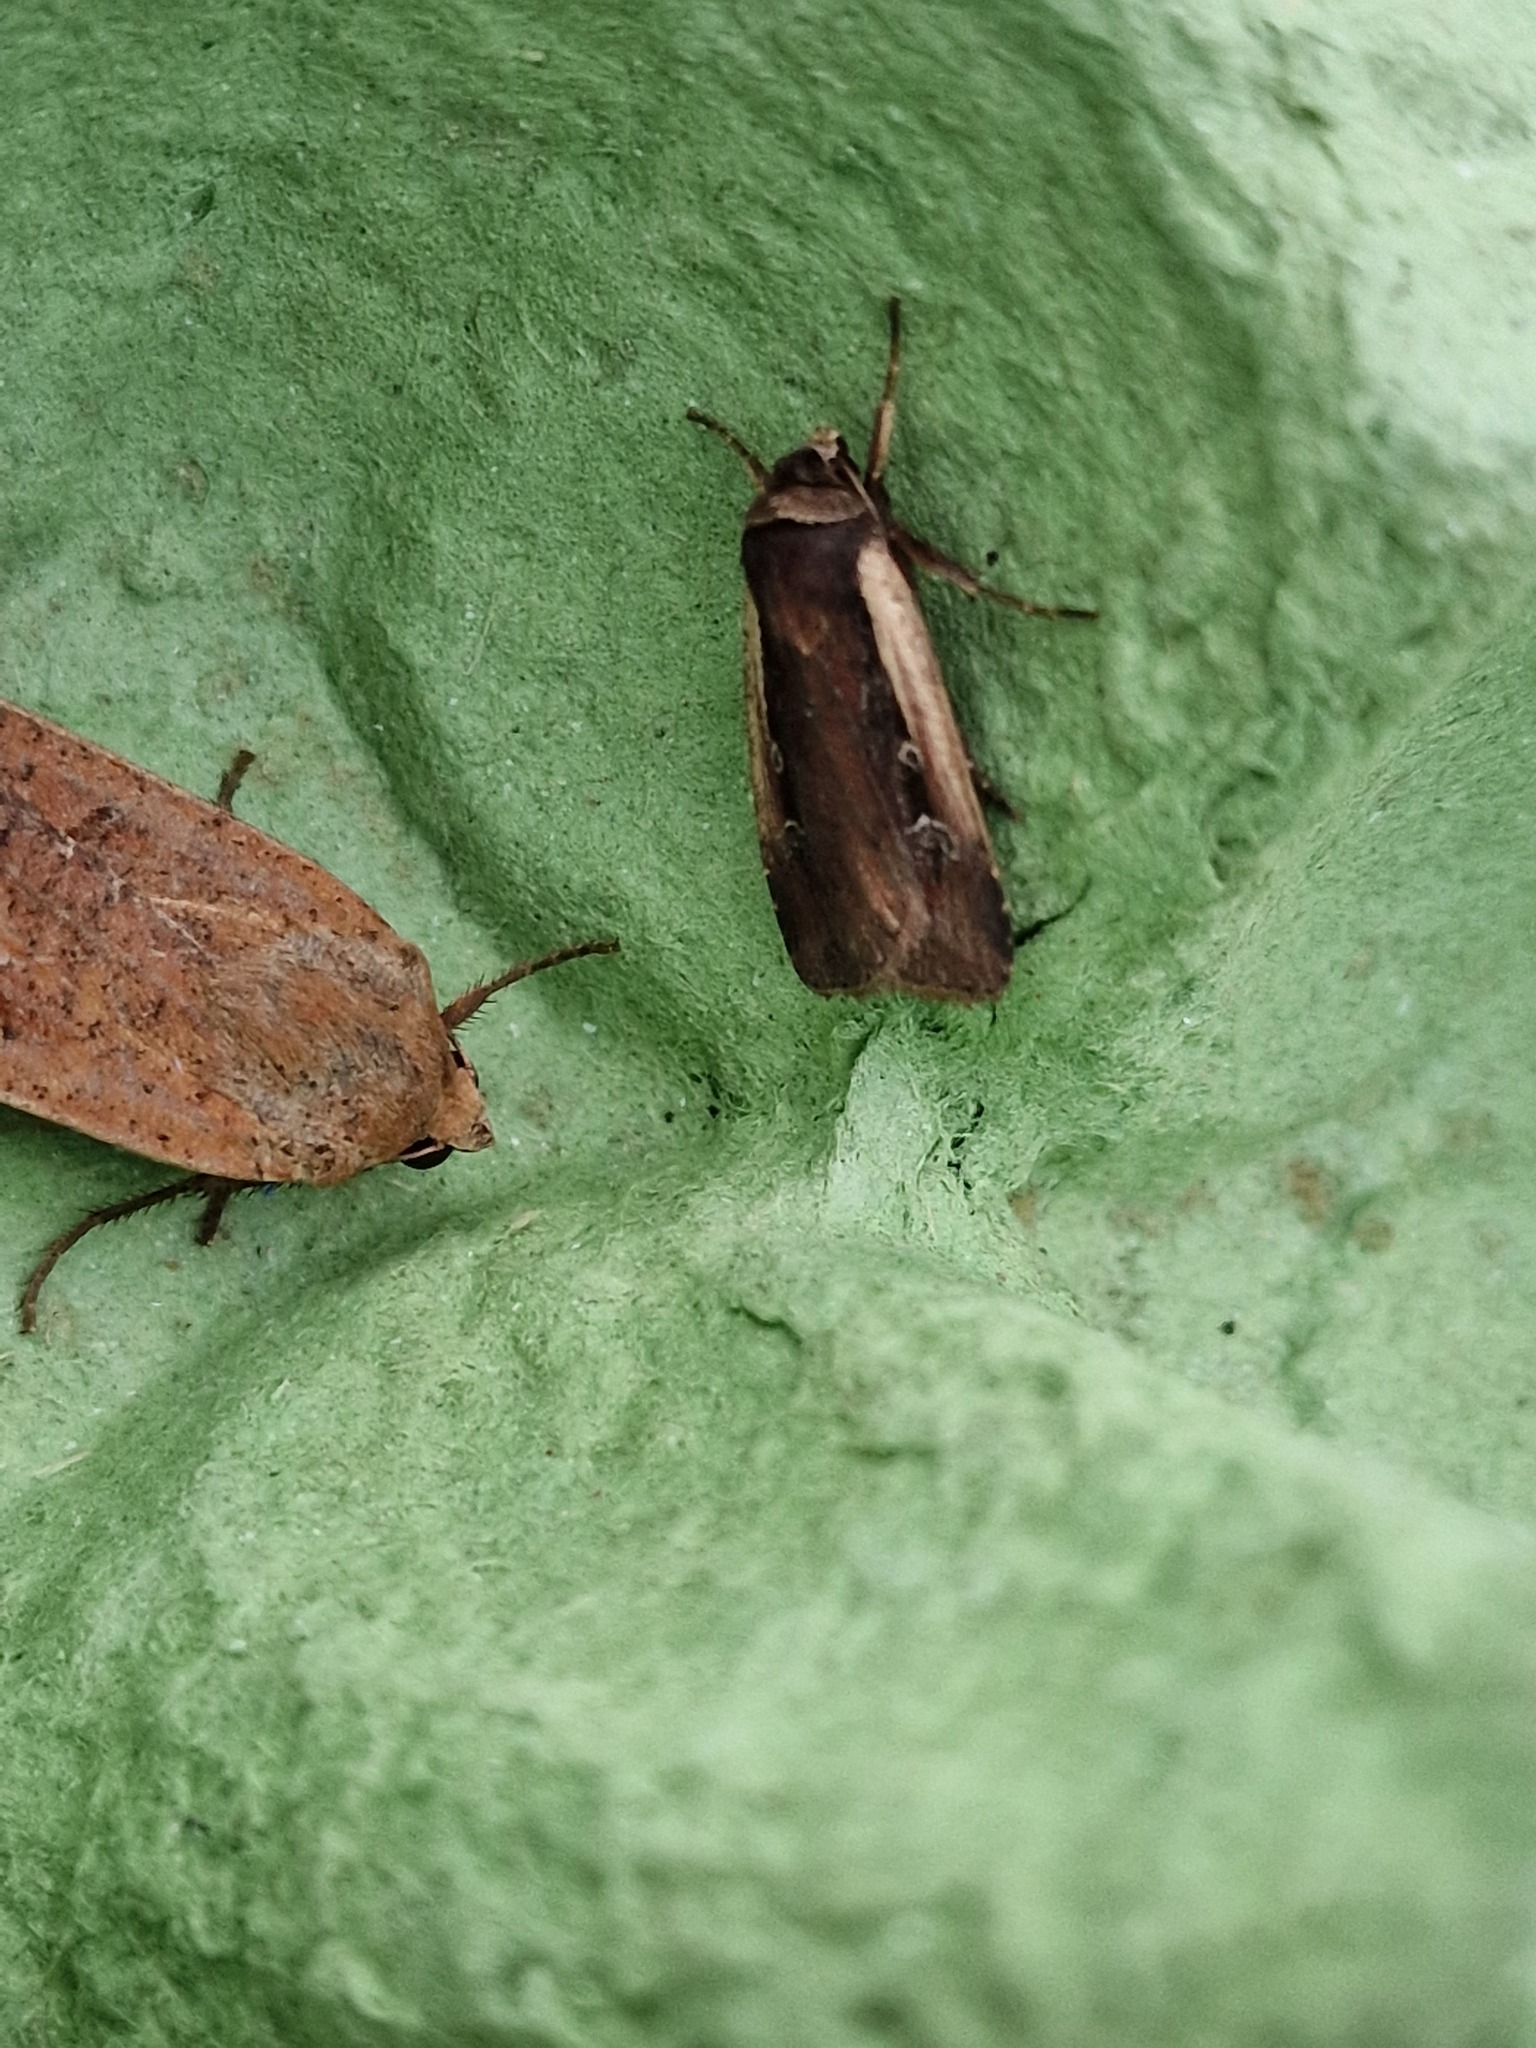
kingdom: Animalia
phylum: Arthropoda
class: Insecta
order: Lepidoptera
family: Noctuidae
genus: Ochropleura
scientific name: Ochropleura plecta
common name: Flame shoulder
